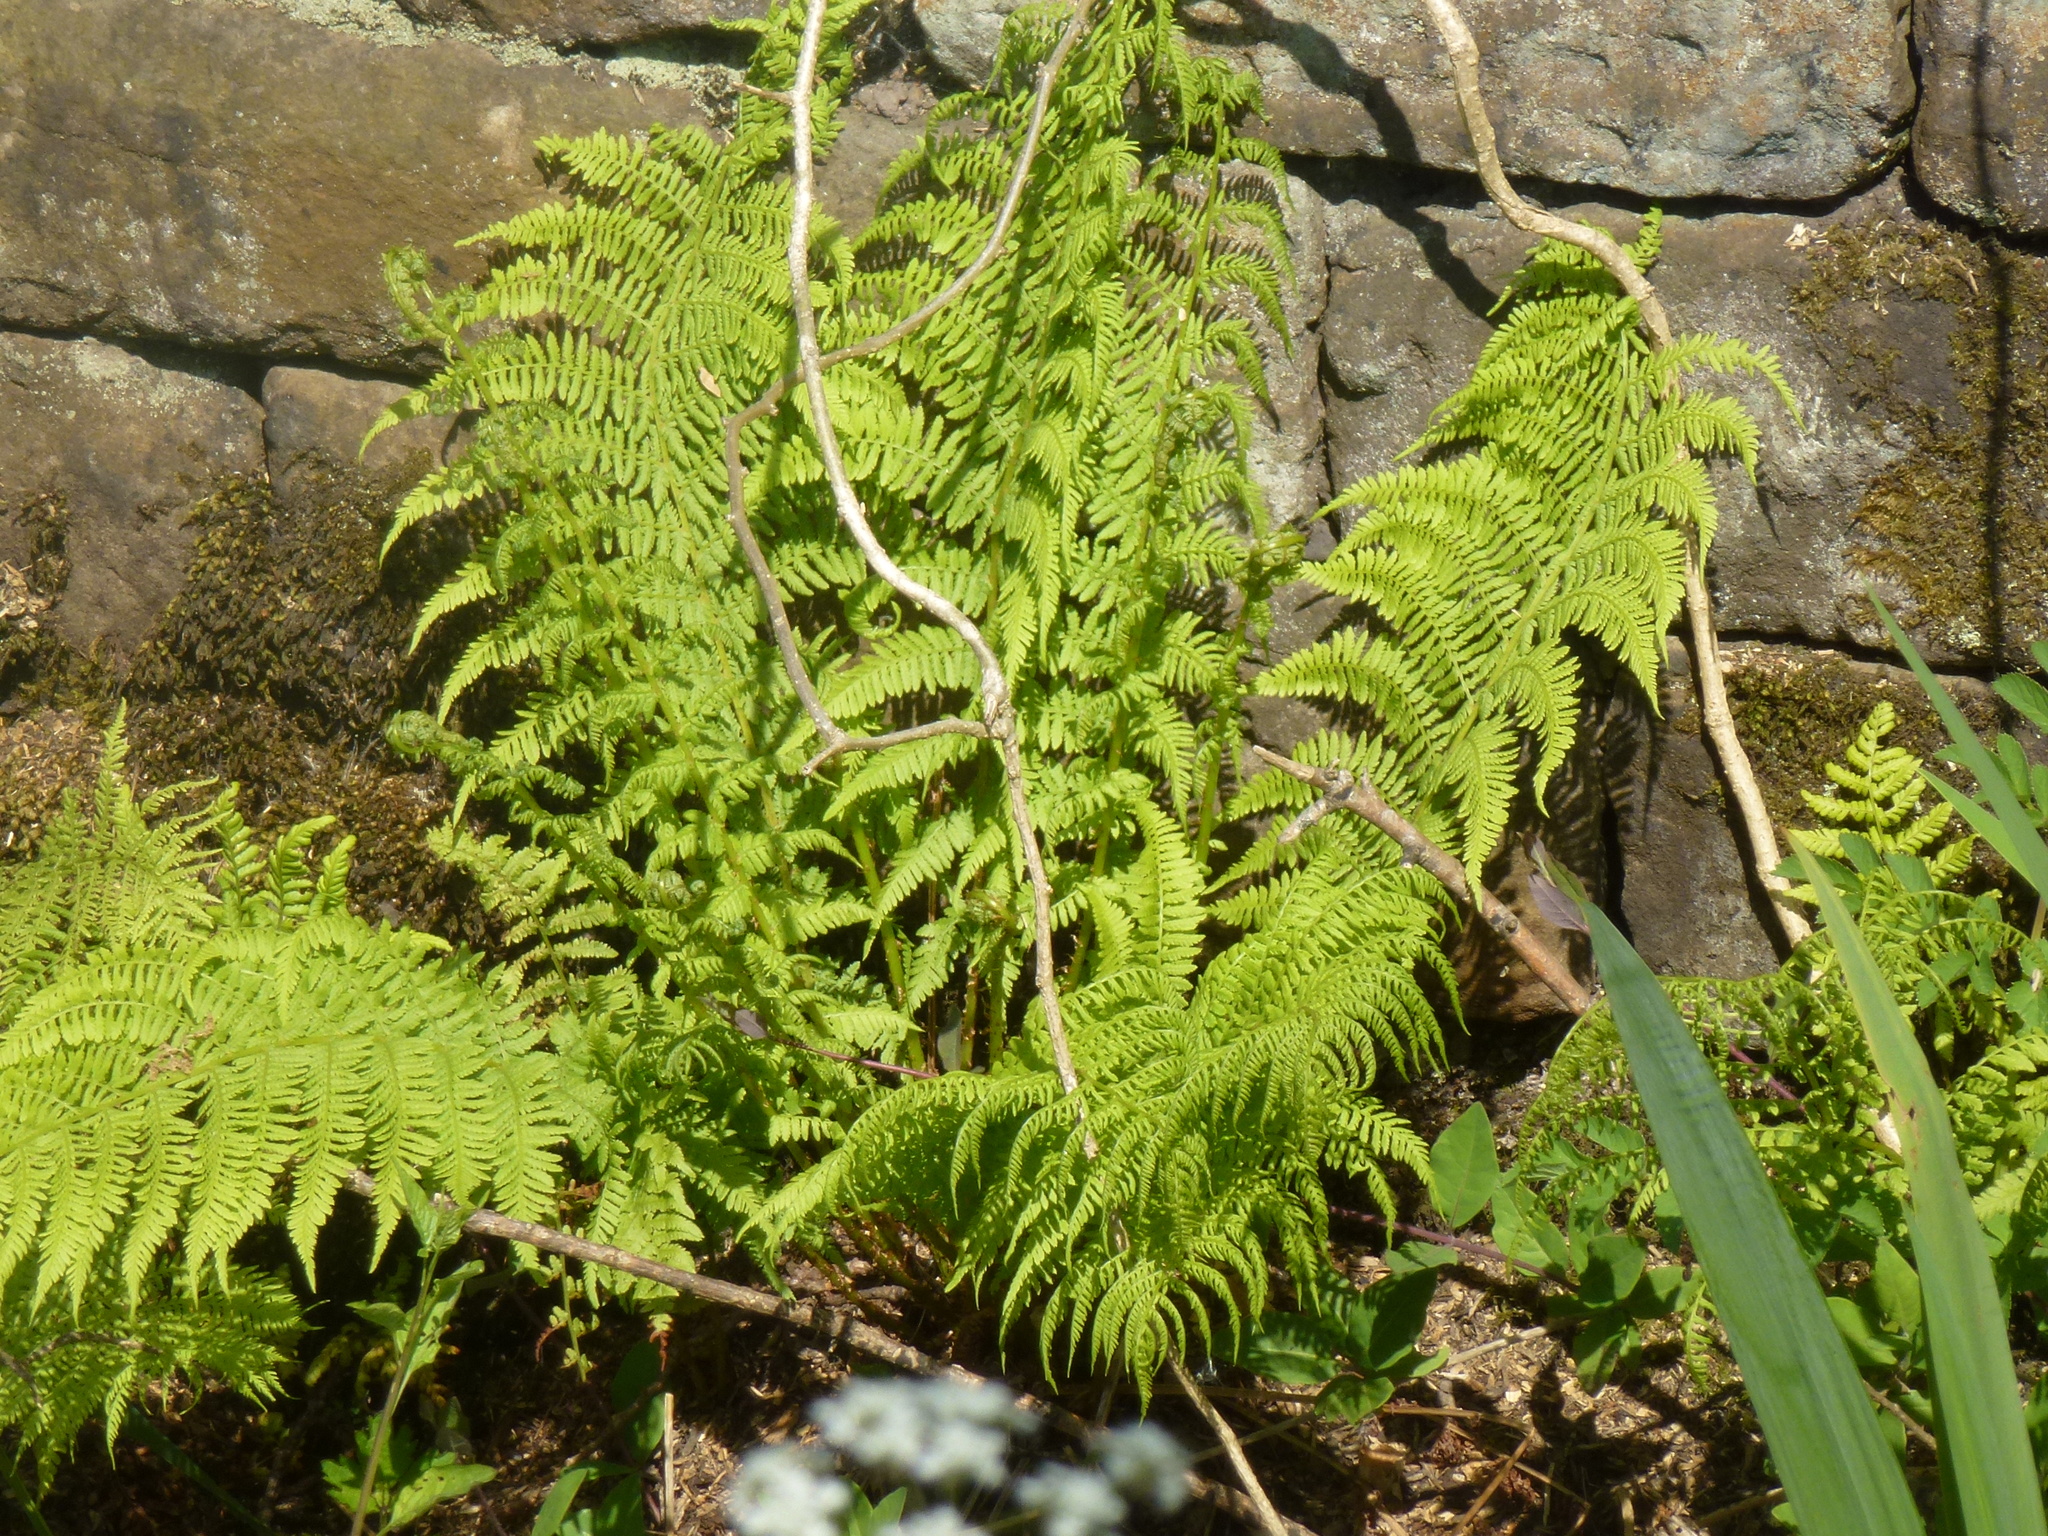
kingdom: Plantae
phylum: Tracheophyta
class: Polypodiopsida
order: Polypodiales
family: Athyriaceae
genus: Athyrium
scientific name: Athyrium filix-femina
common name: Lady fern
